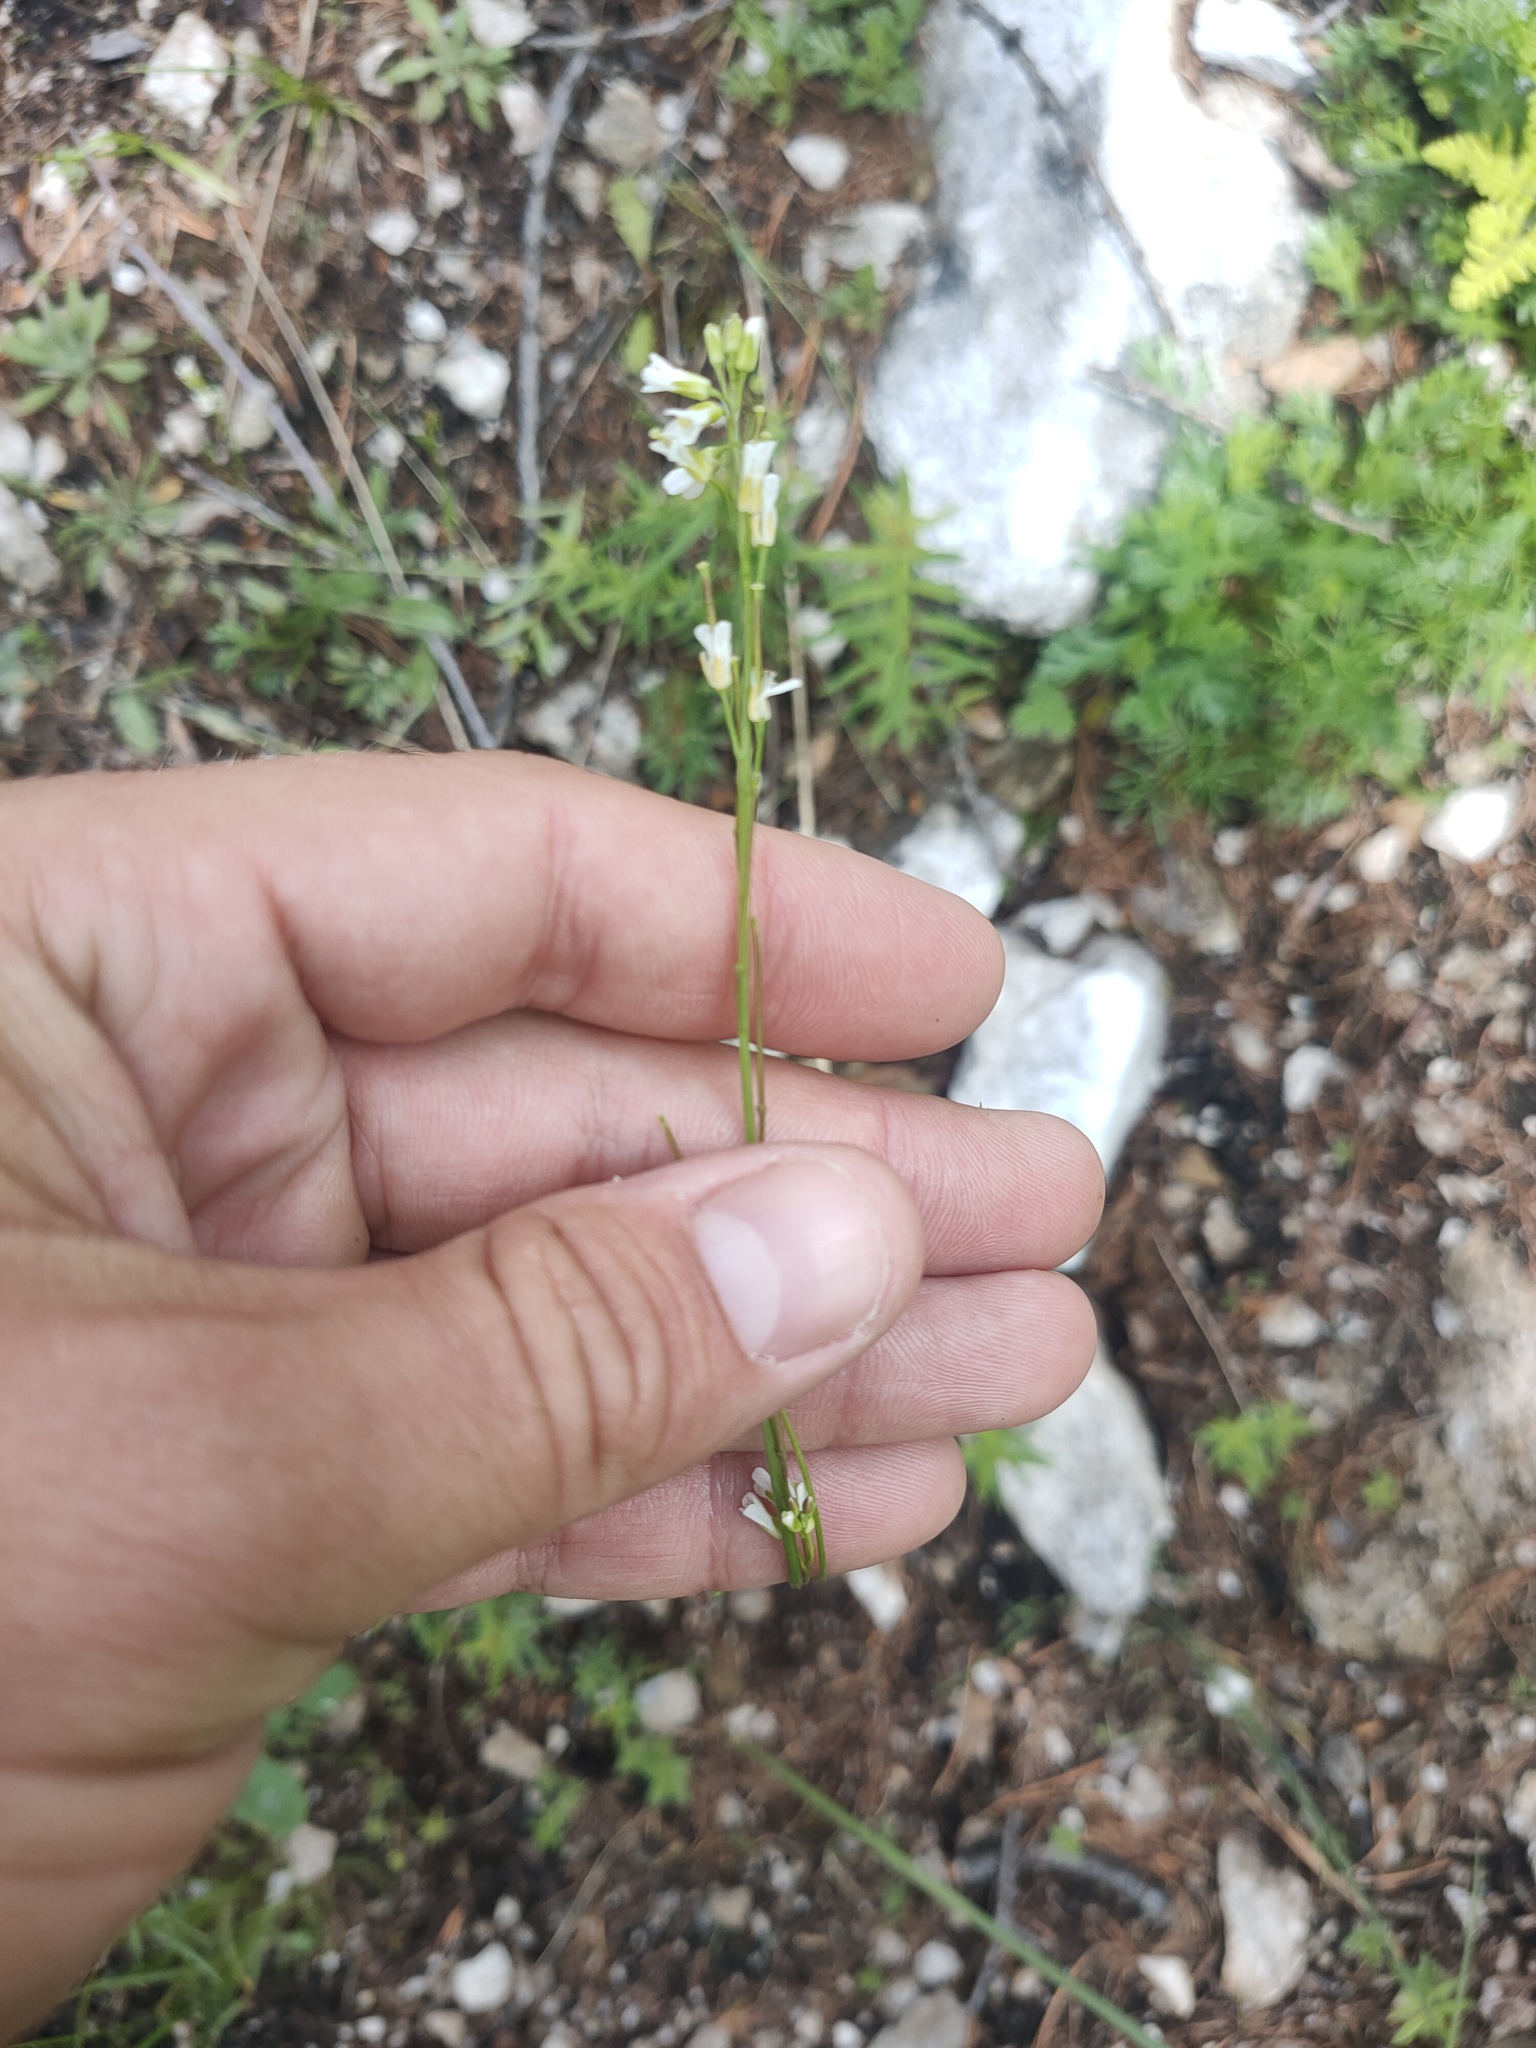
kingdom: Plantae
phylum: Tracheophyta
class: Magnoliopsida
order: Brassicales
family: Brassicaceae
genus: Arabis
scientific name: Arabis borealis
